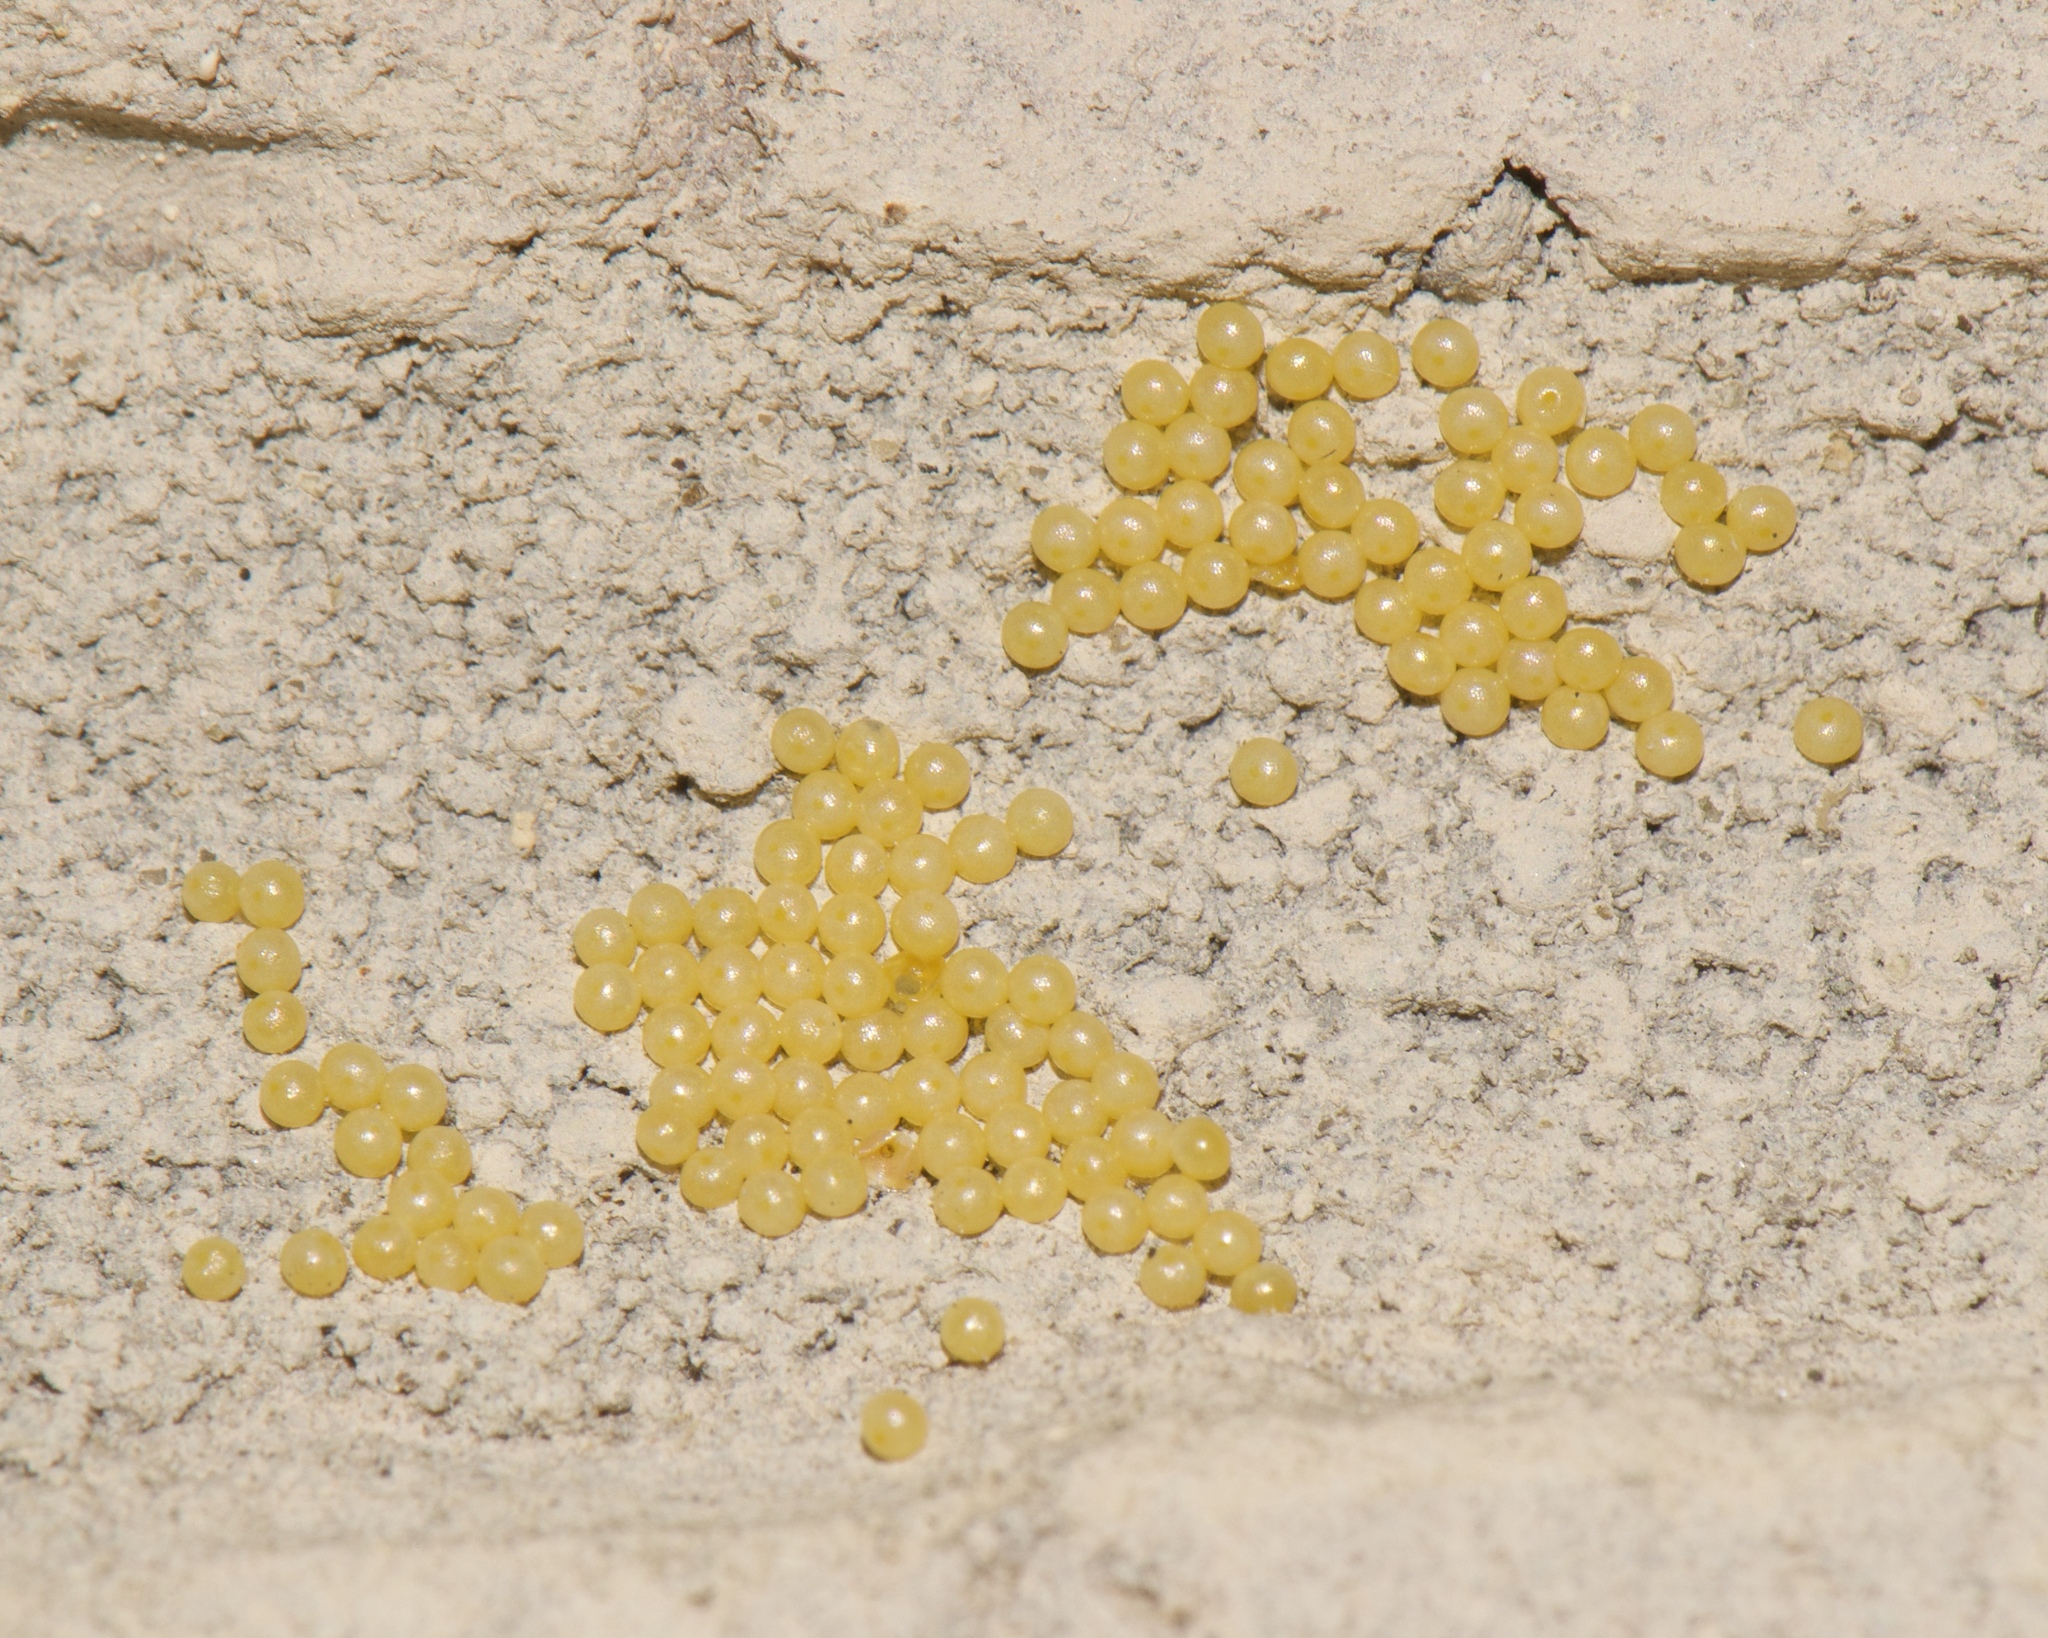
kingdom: Animalia
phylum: Arthropoda
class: Insecta
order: Lepidoptera
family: Erebidae
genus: Estigmene
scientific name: Estigmene acrea
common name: Salt marsh moth
